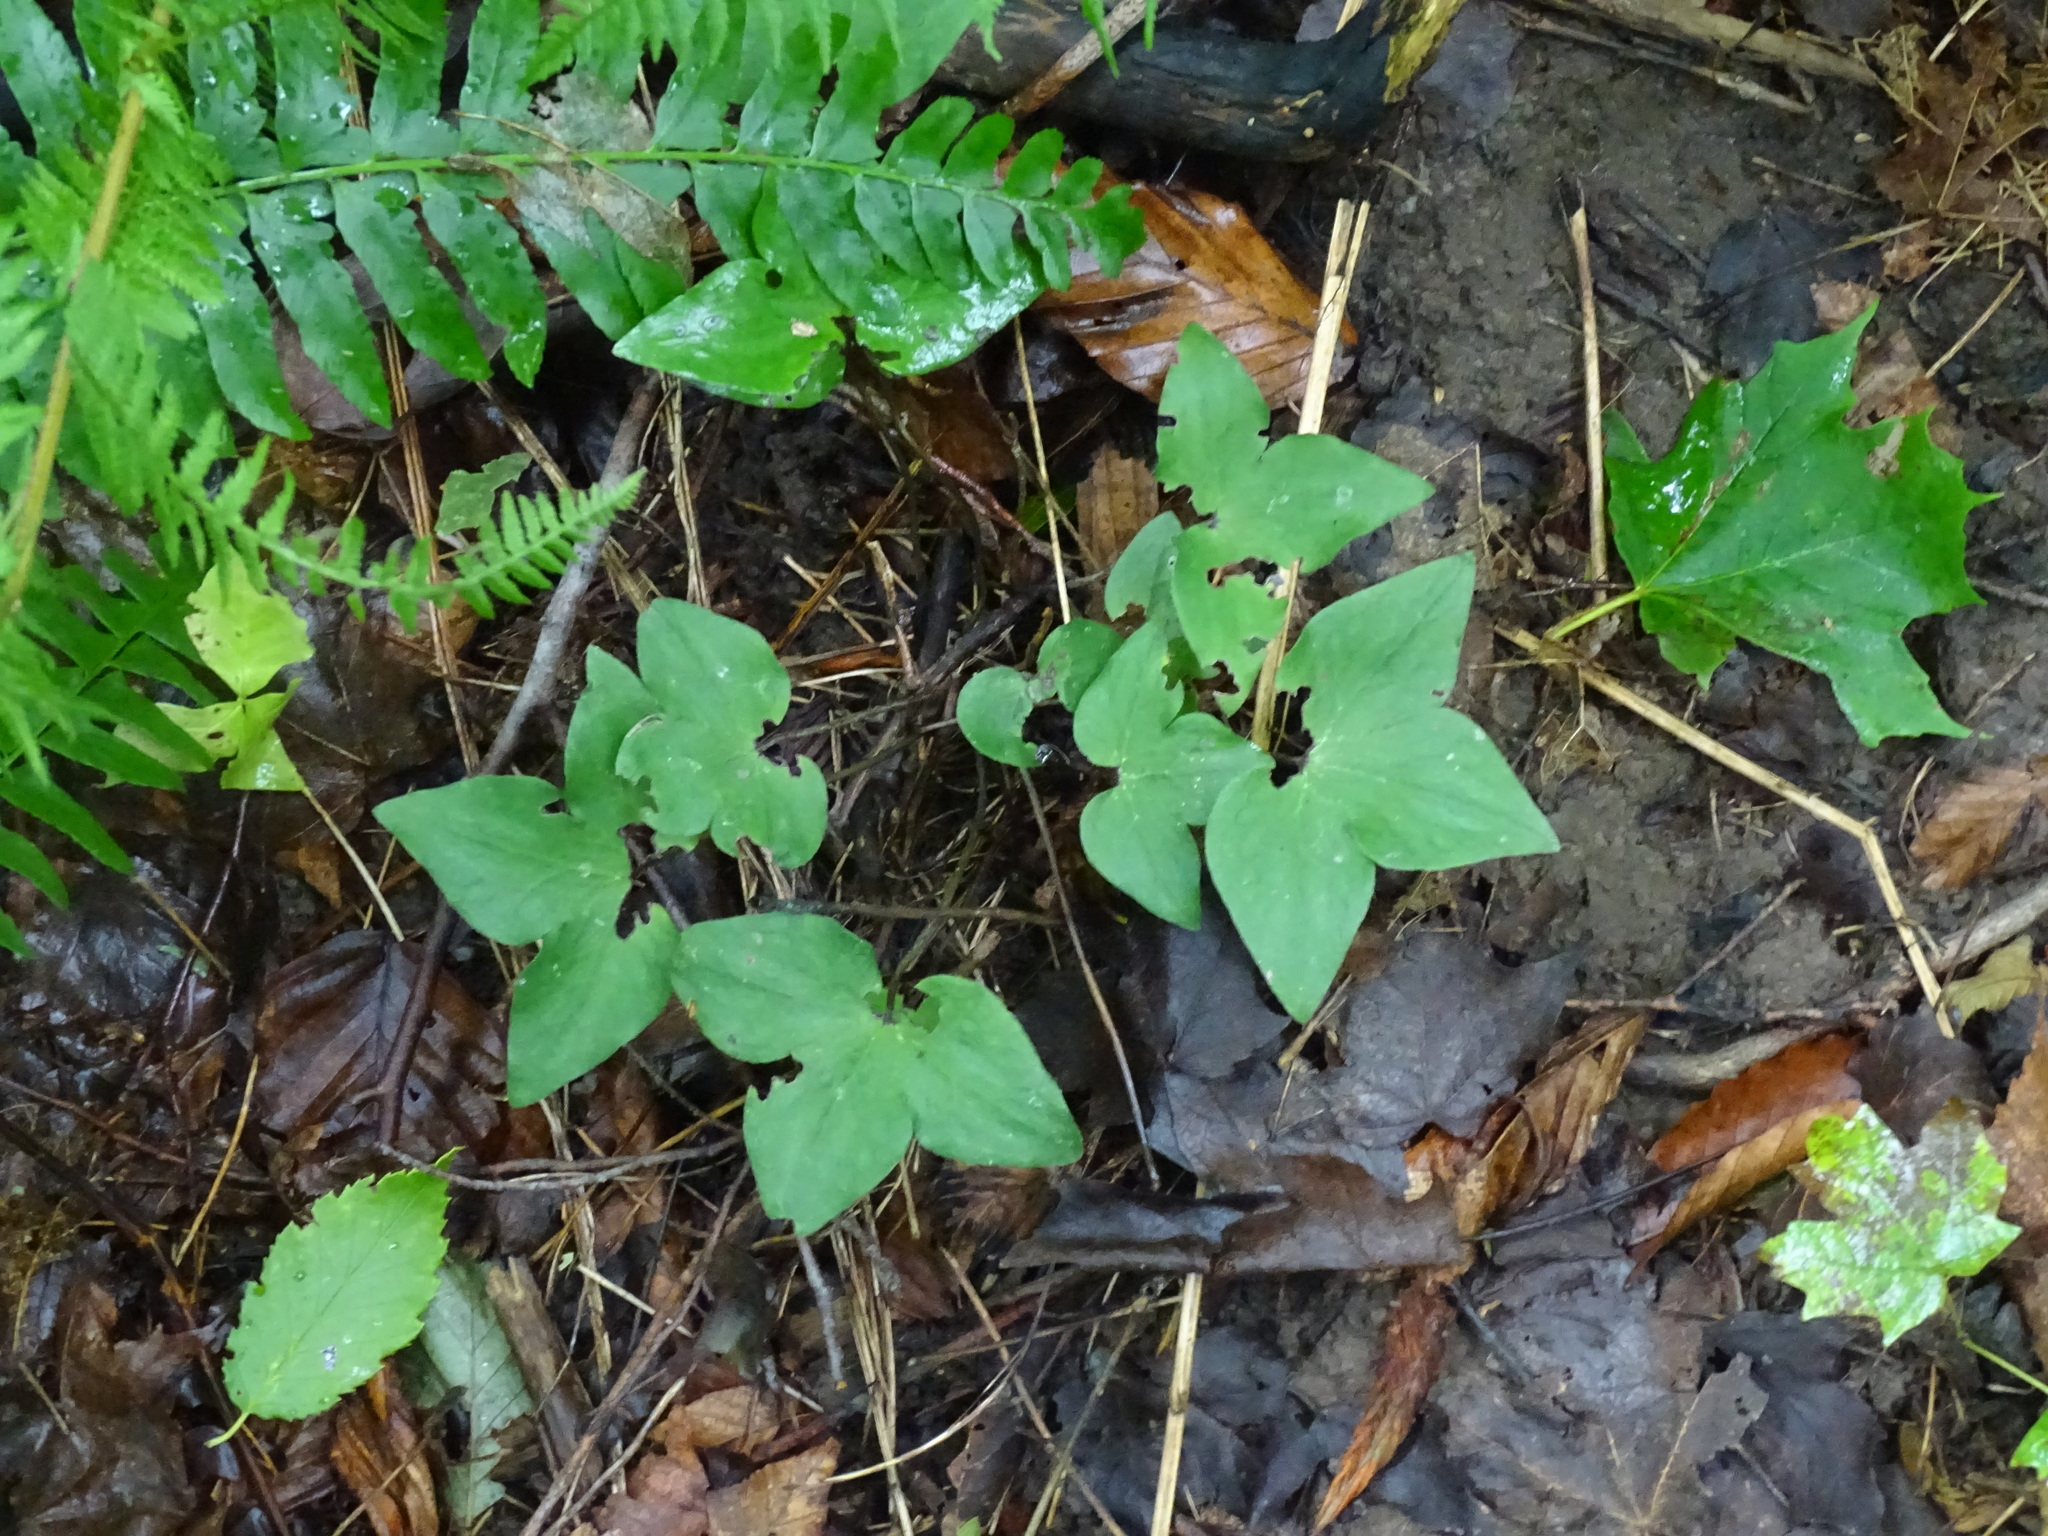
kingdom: Plantae
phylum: Tracheophyta
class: Magnoliopsida
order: Ranunculales
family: Ranunculaceae
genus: Hepatica
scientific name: Hepatica acutiloba
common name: Sharp-lobed hepatica
